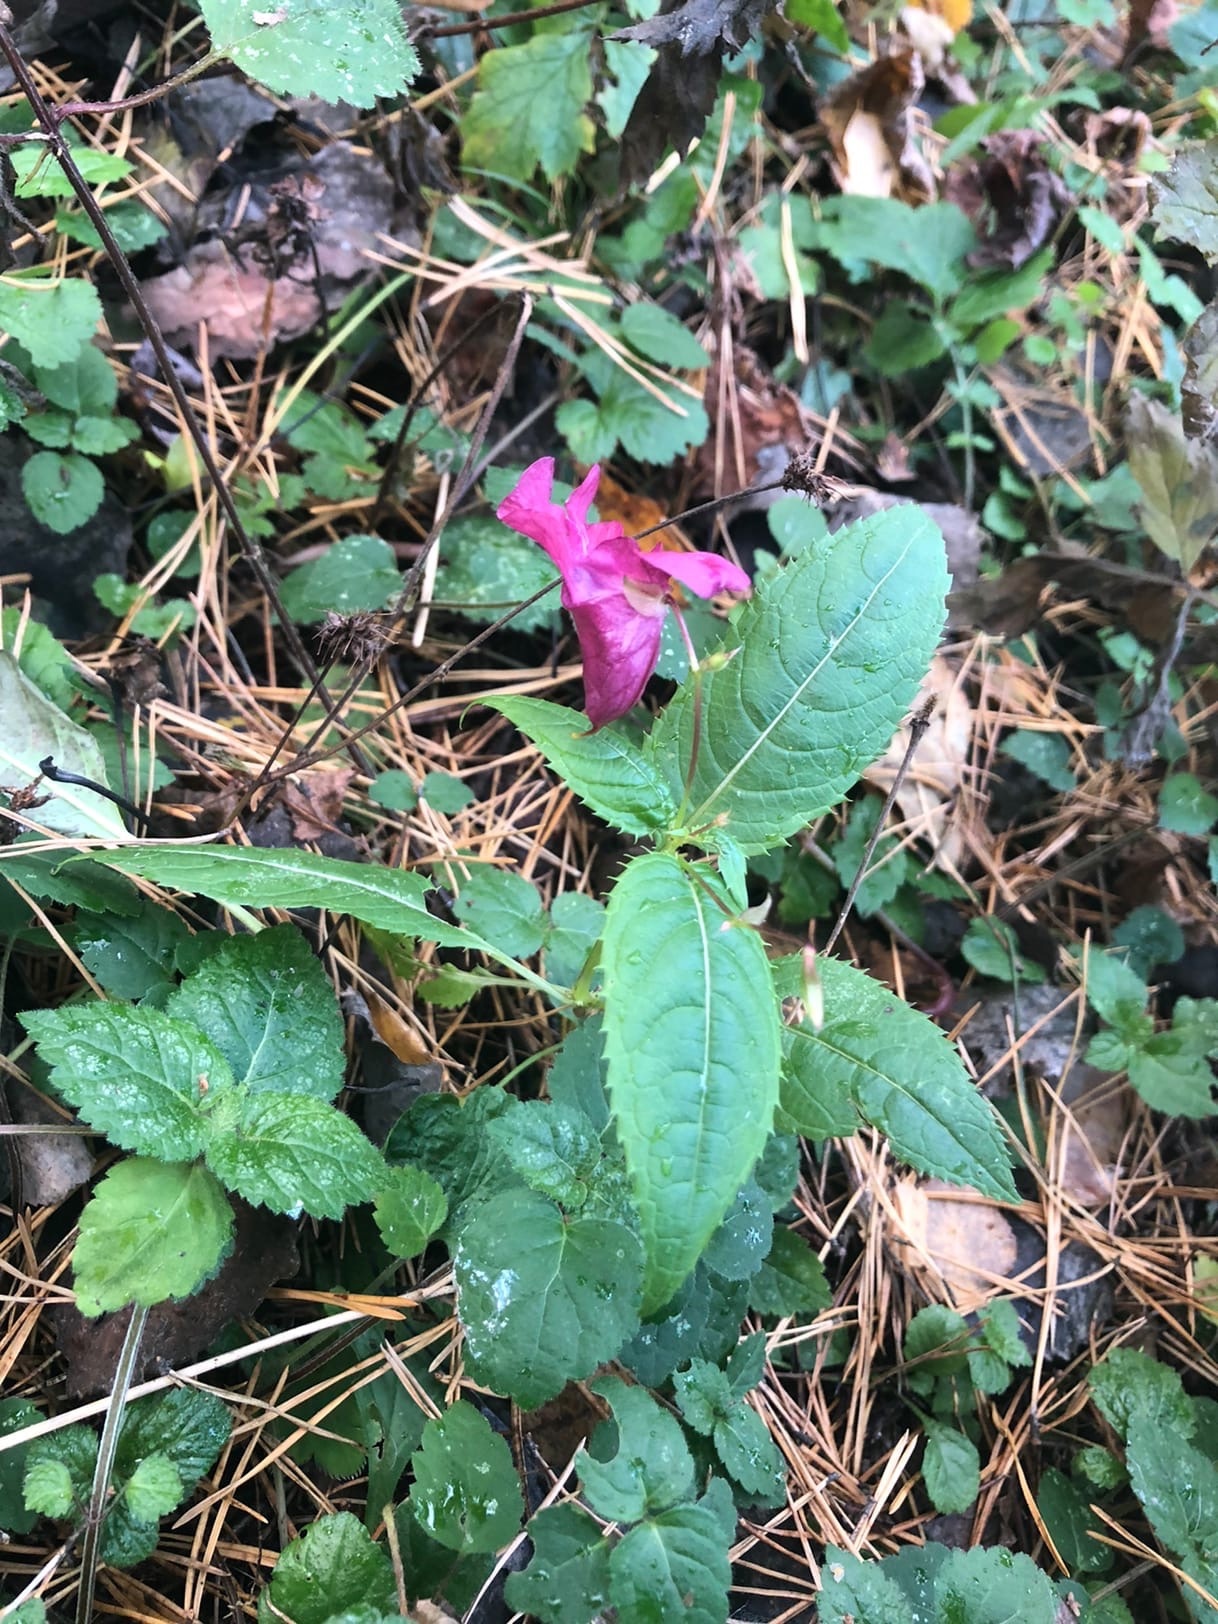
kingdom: Plantae
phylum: Tracheophyta
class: Magnoliopsida
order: Ericales
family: Balsaminaceae
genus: Impatiens
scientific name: Impatiens glandulifera
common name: Himalayan balsam
